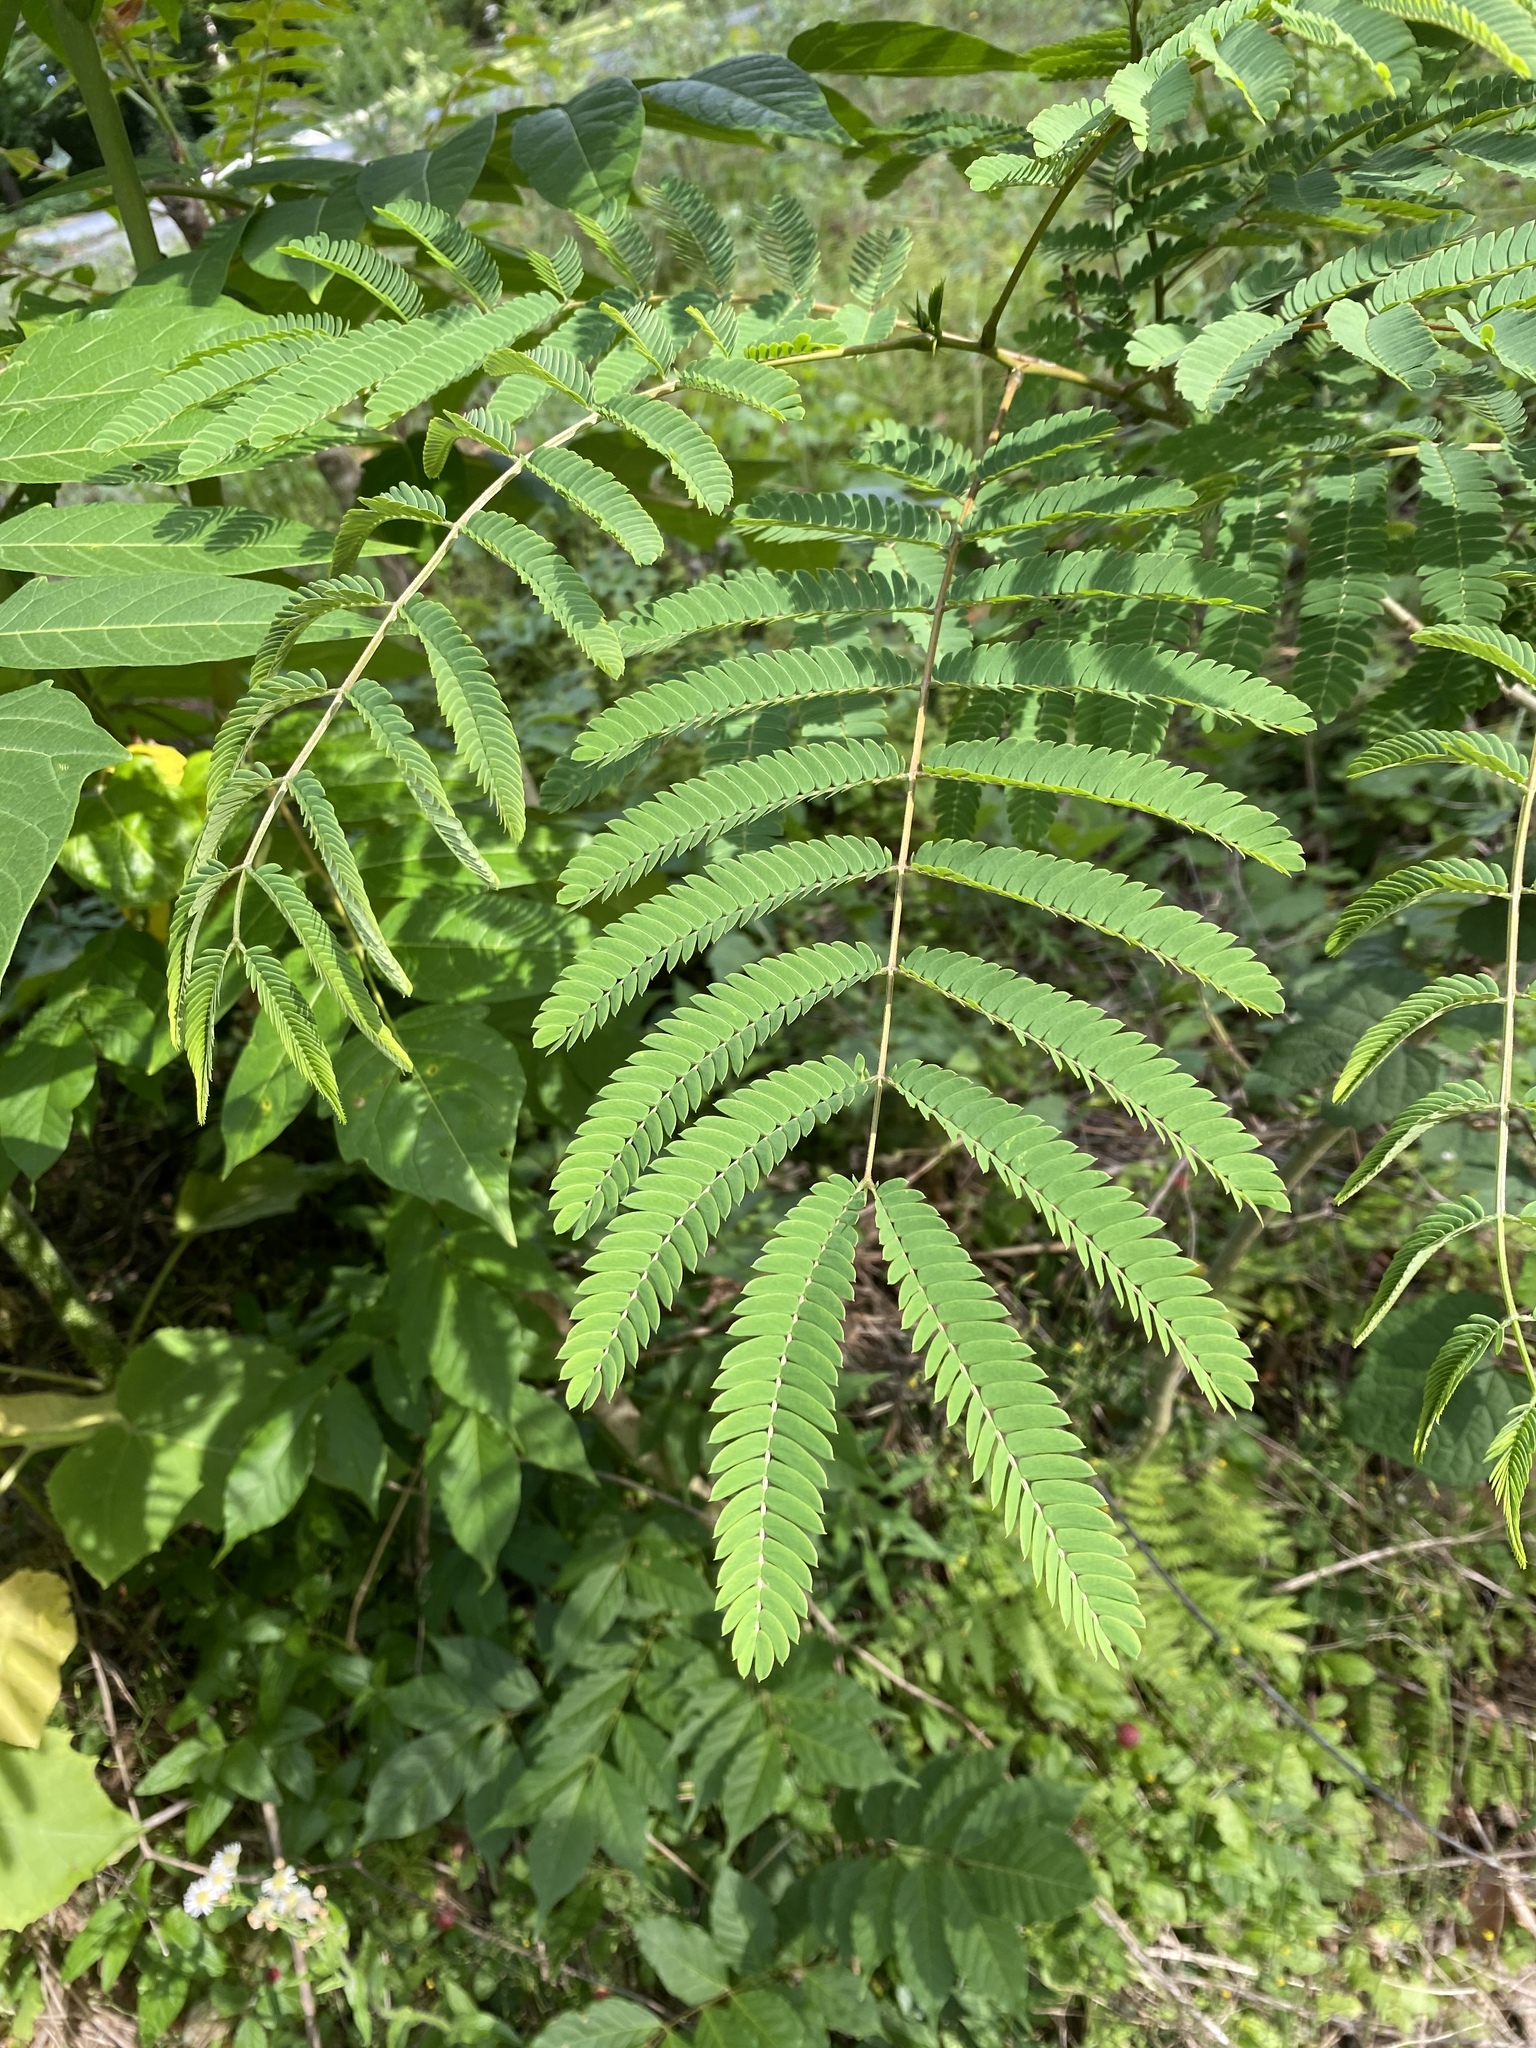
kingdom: Plantae
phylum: Tracheophyta
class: Magnoliopsida
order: Fabales
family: Fabaceae
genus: Albizia
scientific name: Albizia julibrissin
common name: Silktree
